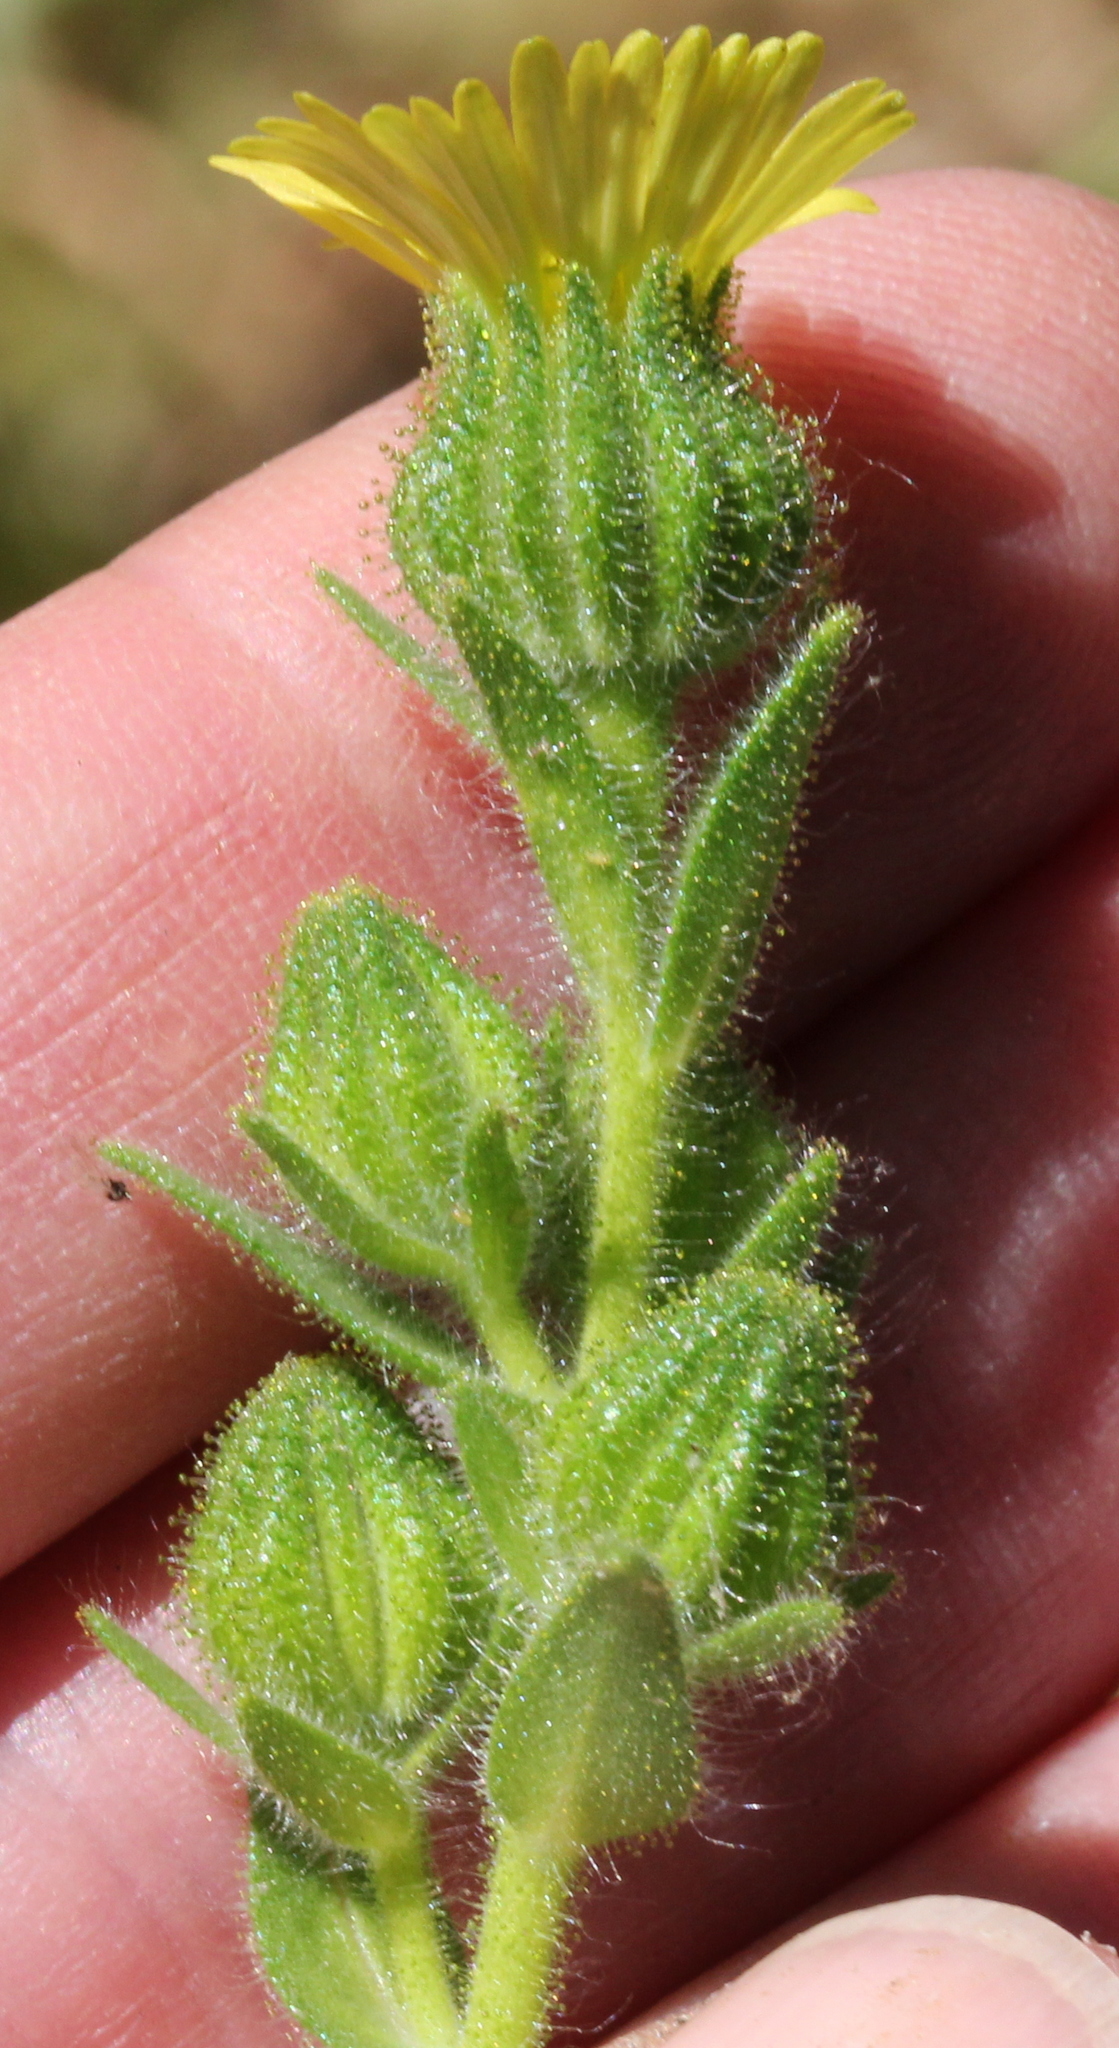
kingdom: Plantae
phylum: Tracheophyta
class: Magnoliopsida
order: Asterales
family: Asteraceae
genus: Madia
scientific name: Madia gracilis
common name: Grassy tarweed
